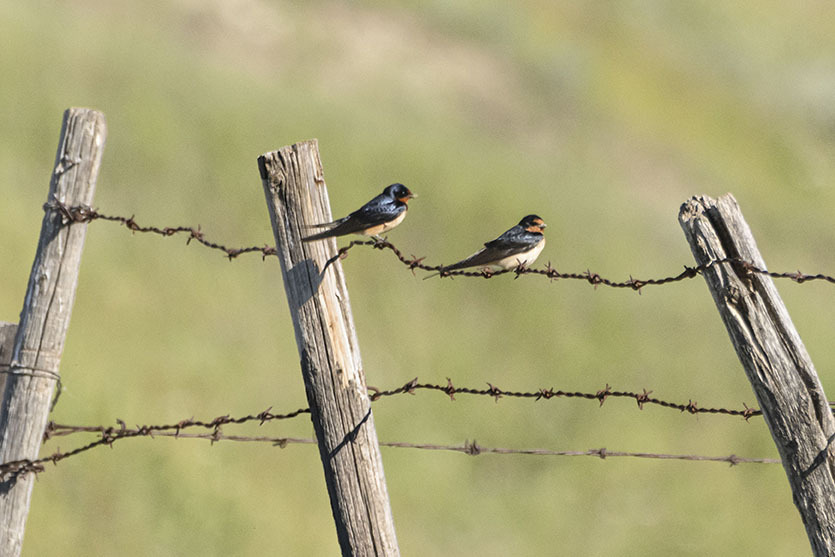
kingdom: Animalia
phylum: Chordata
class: Aves
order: Passeriformes
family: Hirundinidae
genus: Hirundo
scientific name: Hirundo rustica
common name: Barn swallow
